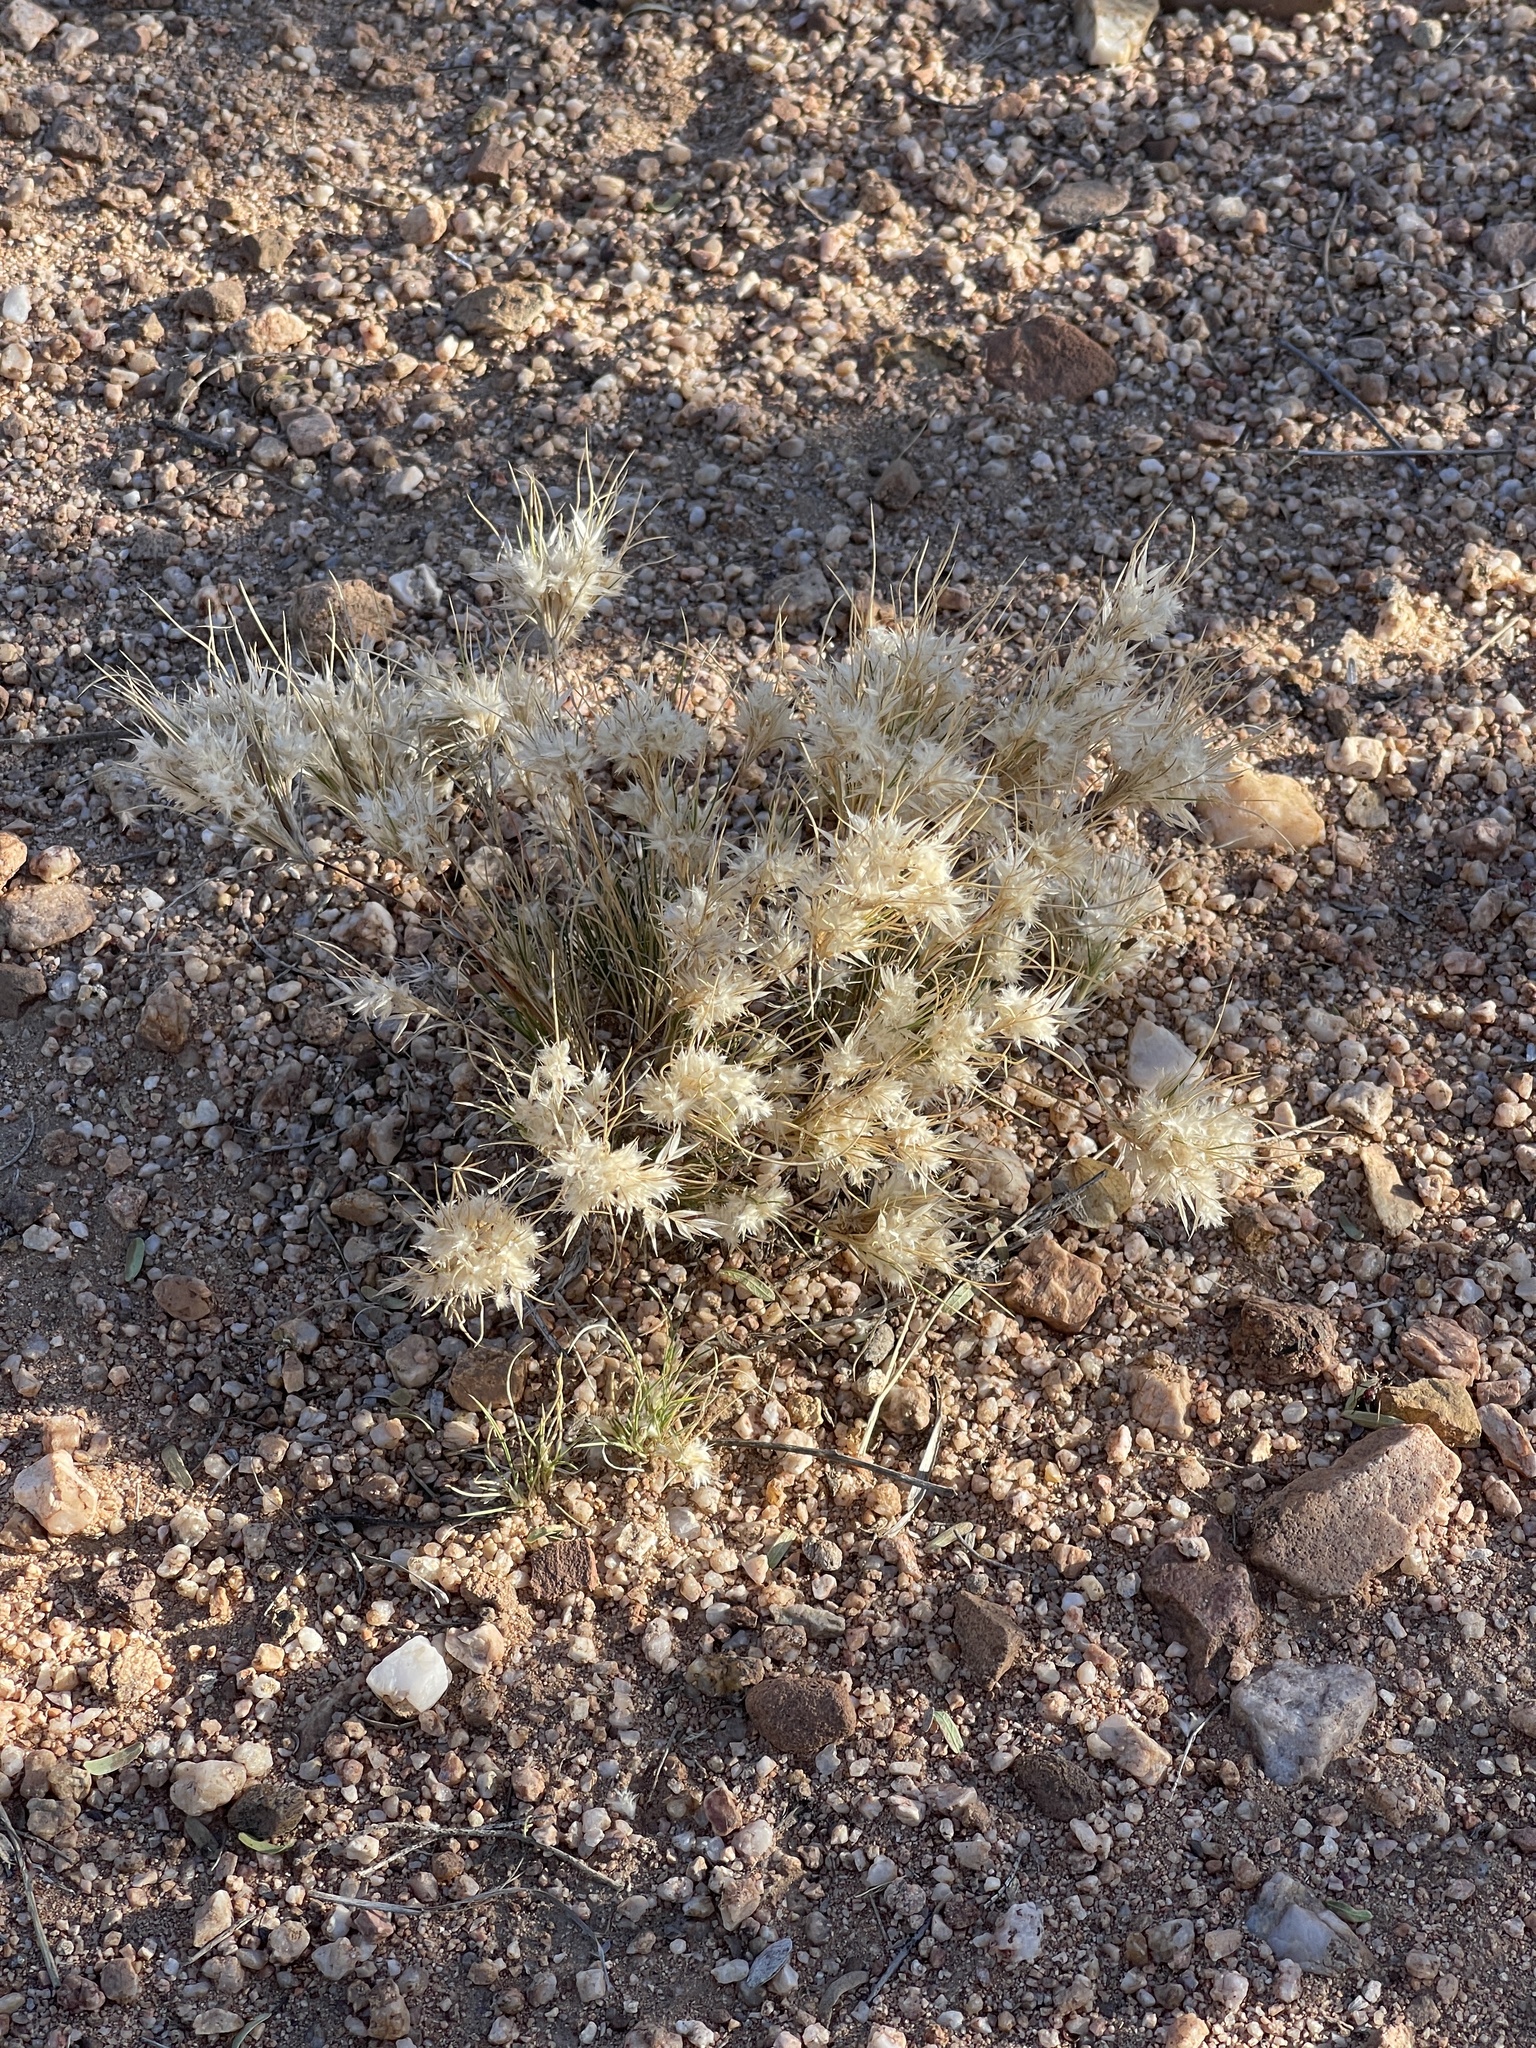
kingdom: Plantae
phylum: Tracheophyta
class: Liliopsida
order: Poales
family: Poaceae
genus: Dasyochloa
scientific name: Dasyochloa pulchella
